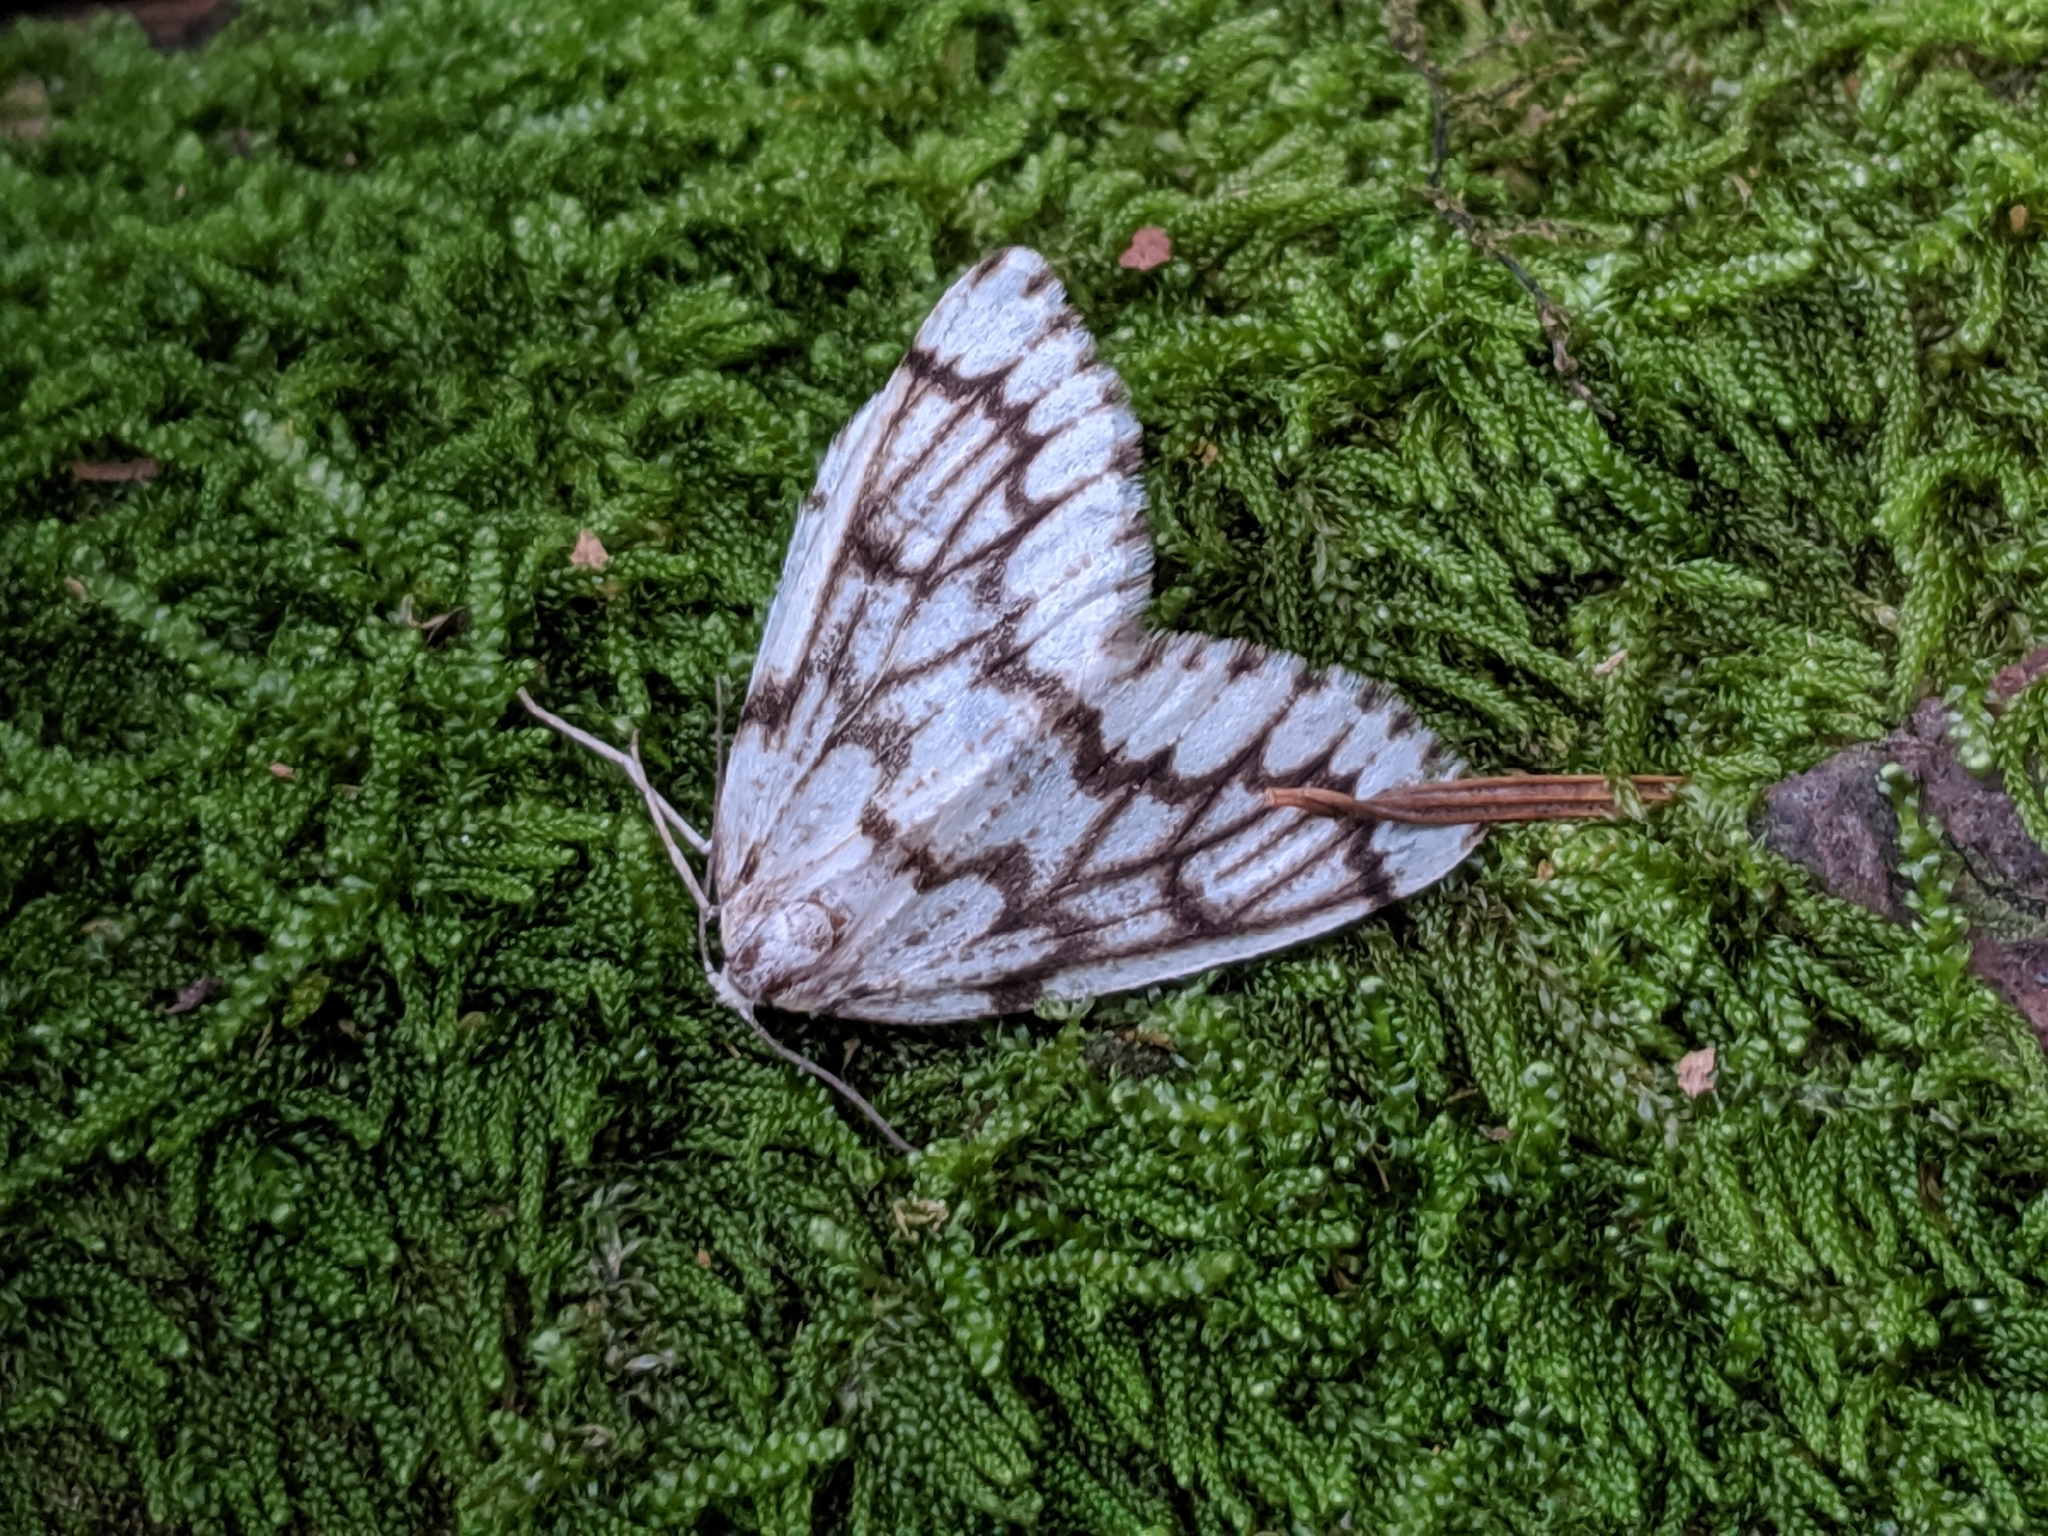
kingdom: Animalia
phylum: Arthropoda
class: Insecta
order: Lepidoptera
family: Geometridae
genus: Nepytia
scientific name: Nepytia phantasmaria
